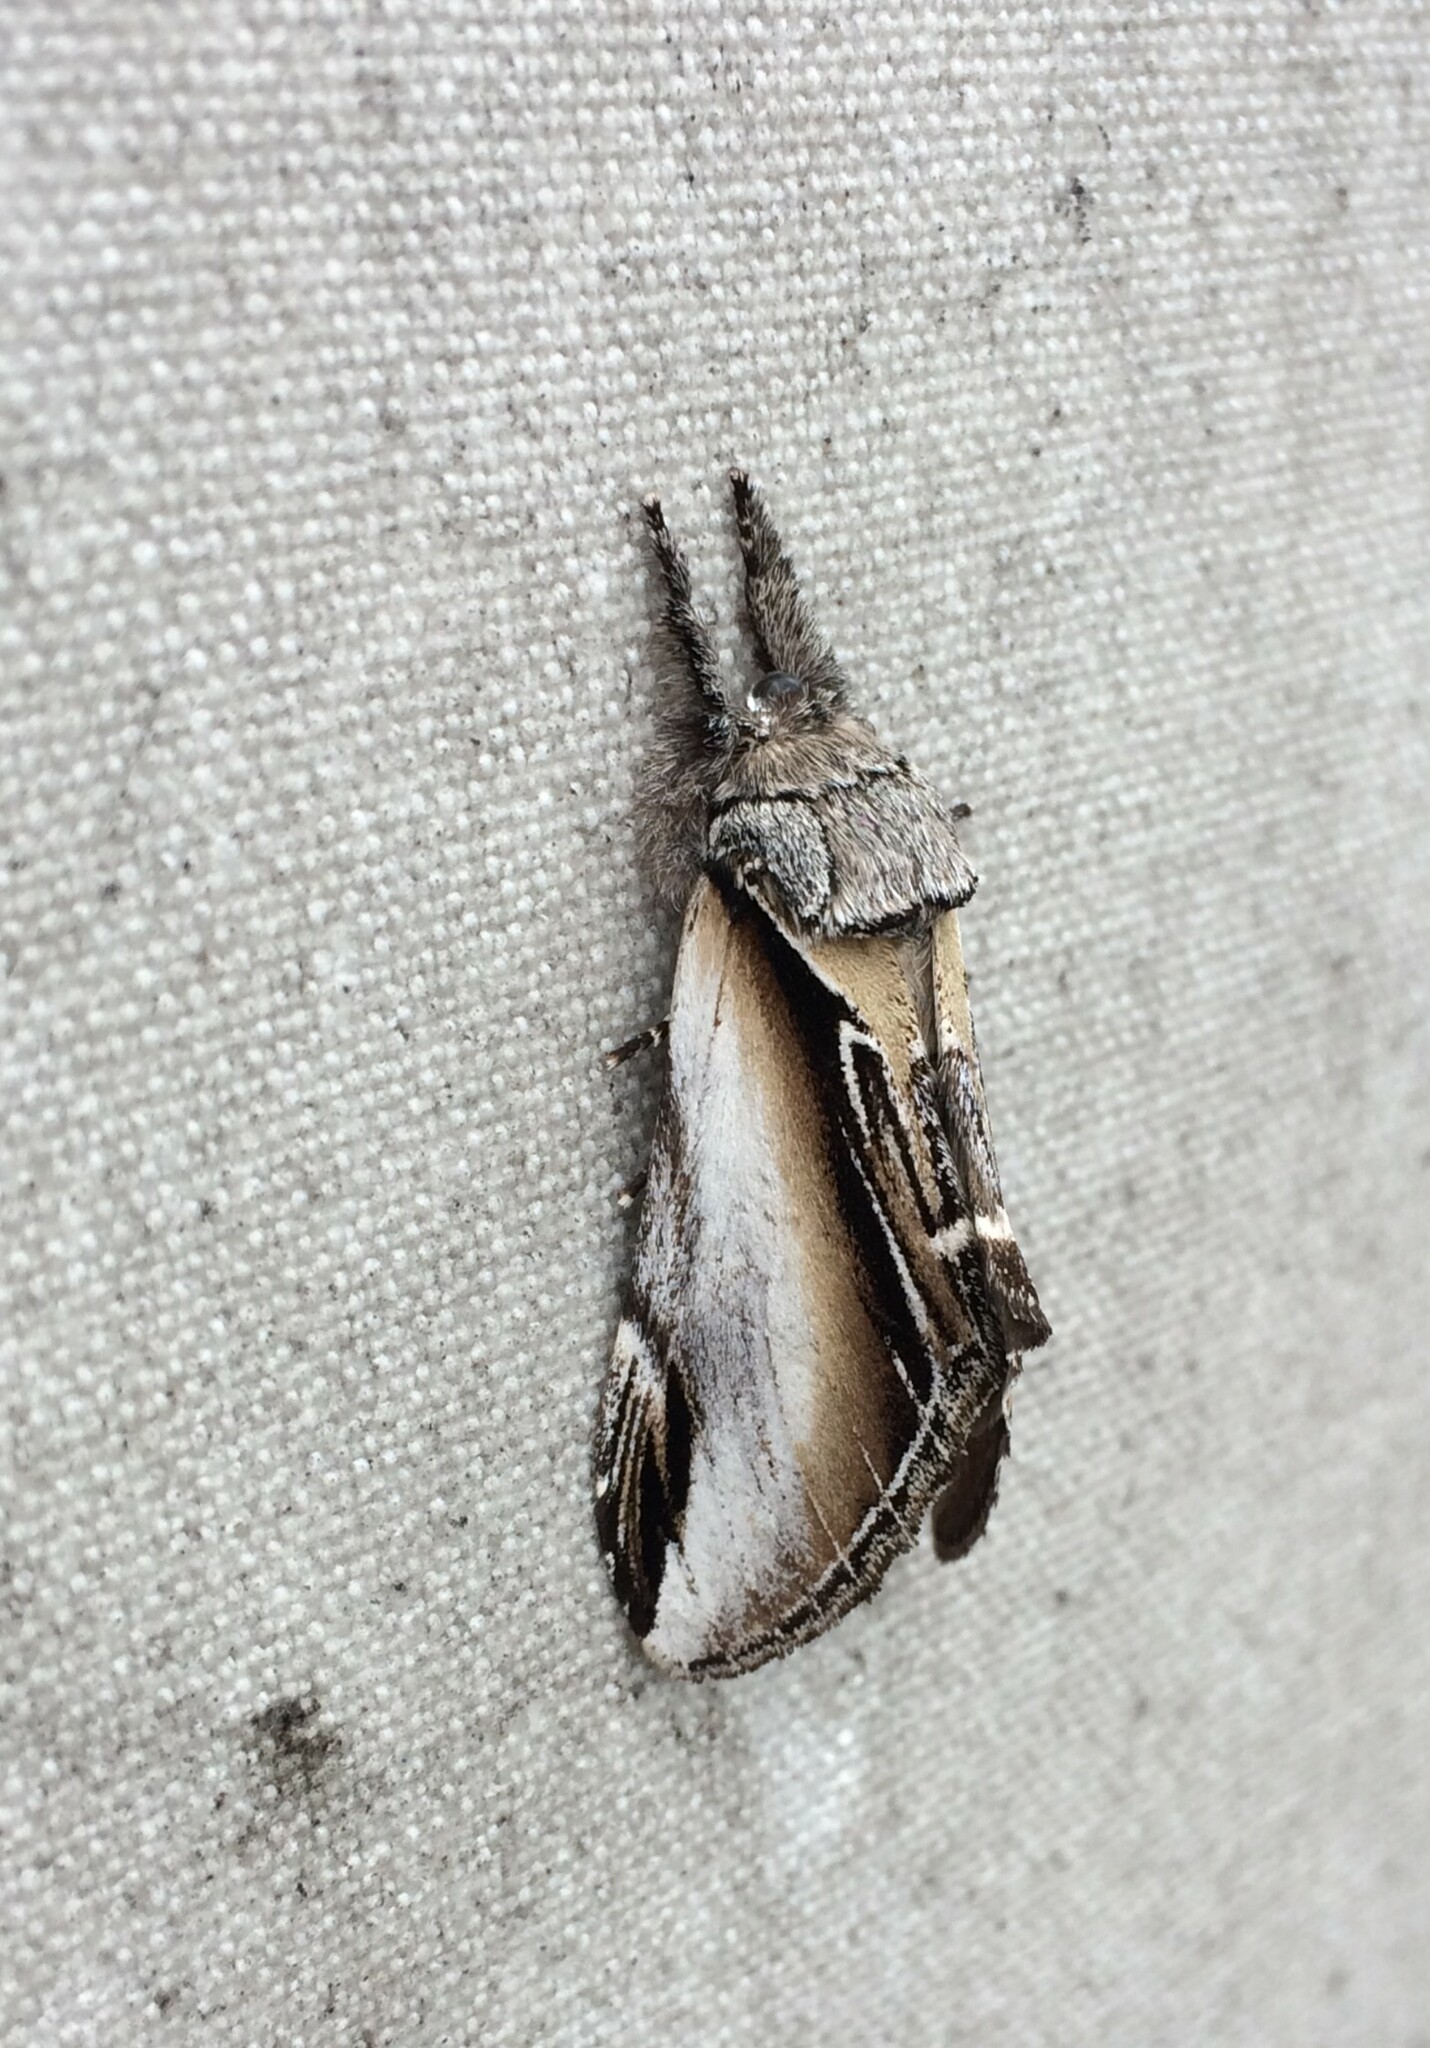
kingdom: Animalia
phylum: Arthropoda
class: Insecta
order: Lepidoptera
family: Notodontidae
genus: Pheosia
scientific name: Pheosia rimosa
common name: Black-rimmed prominent
